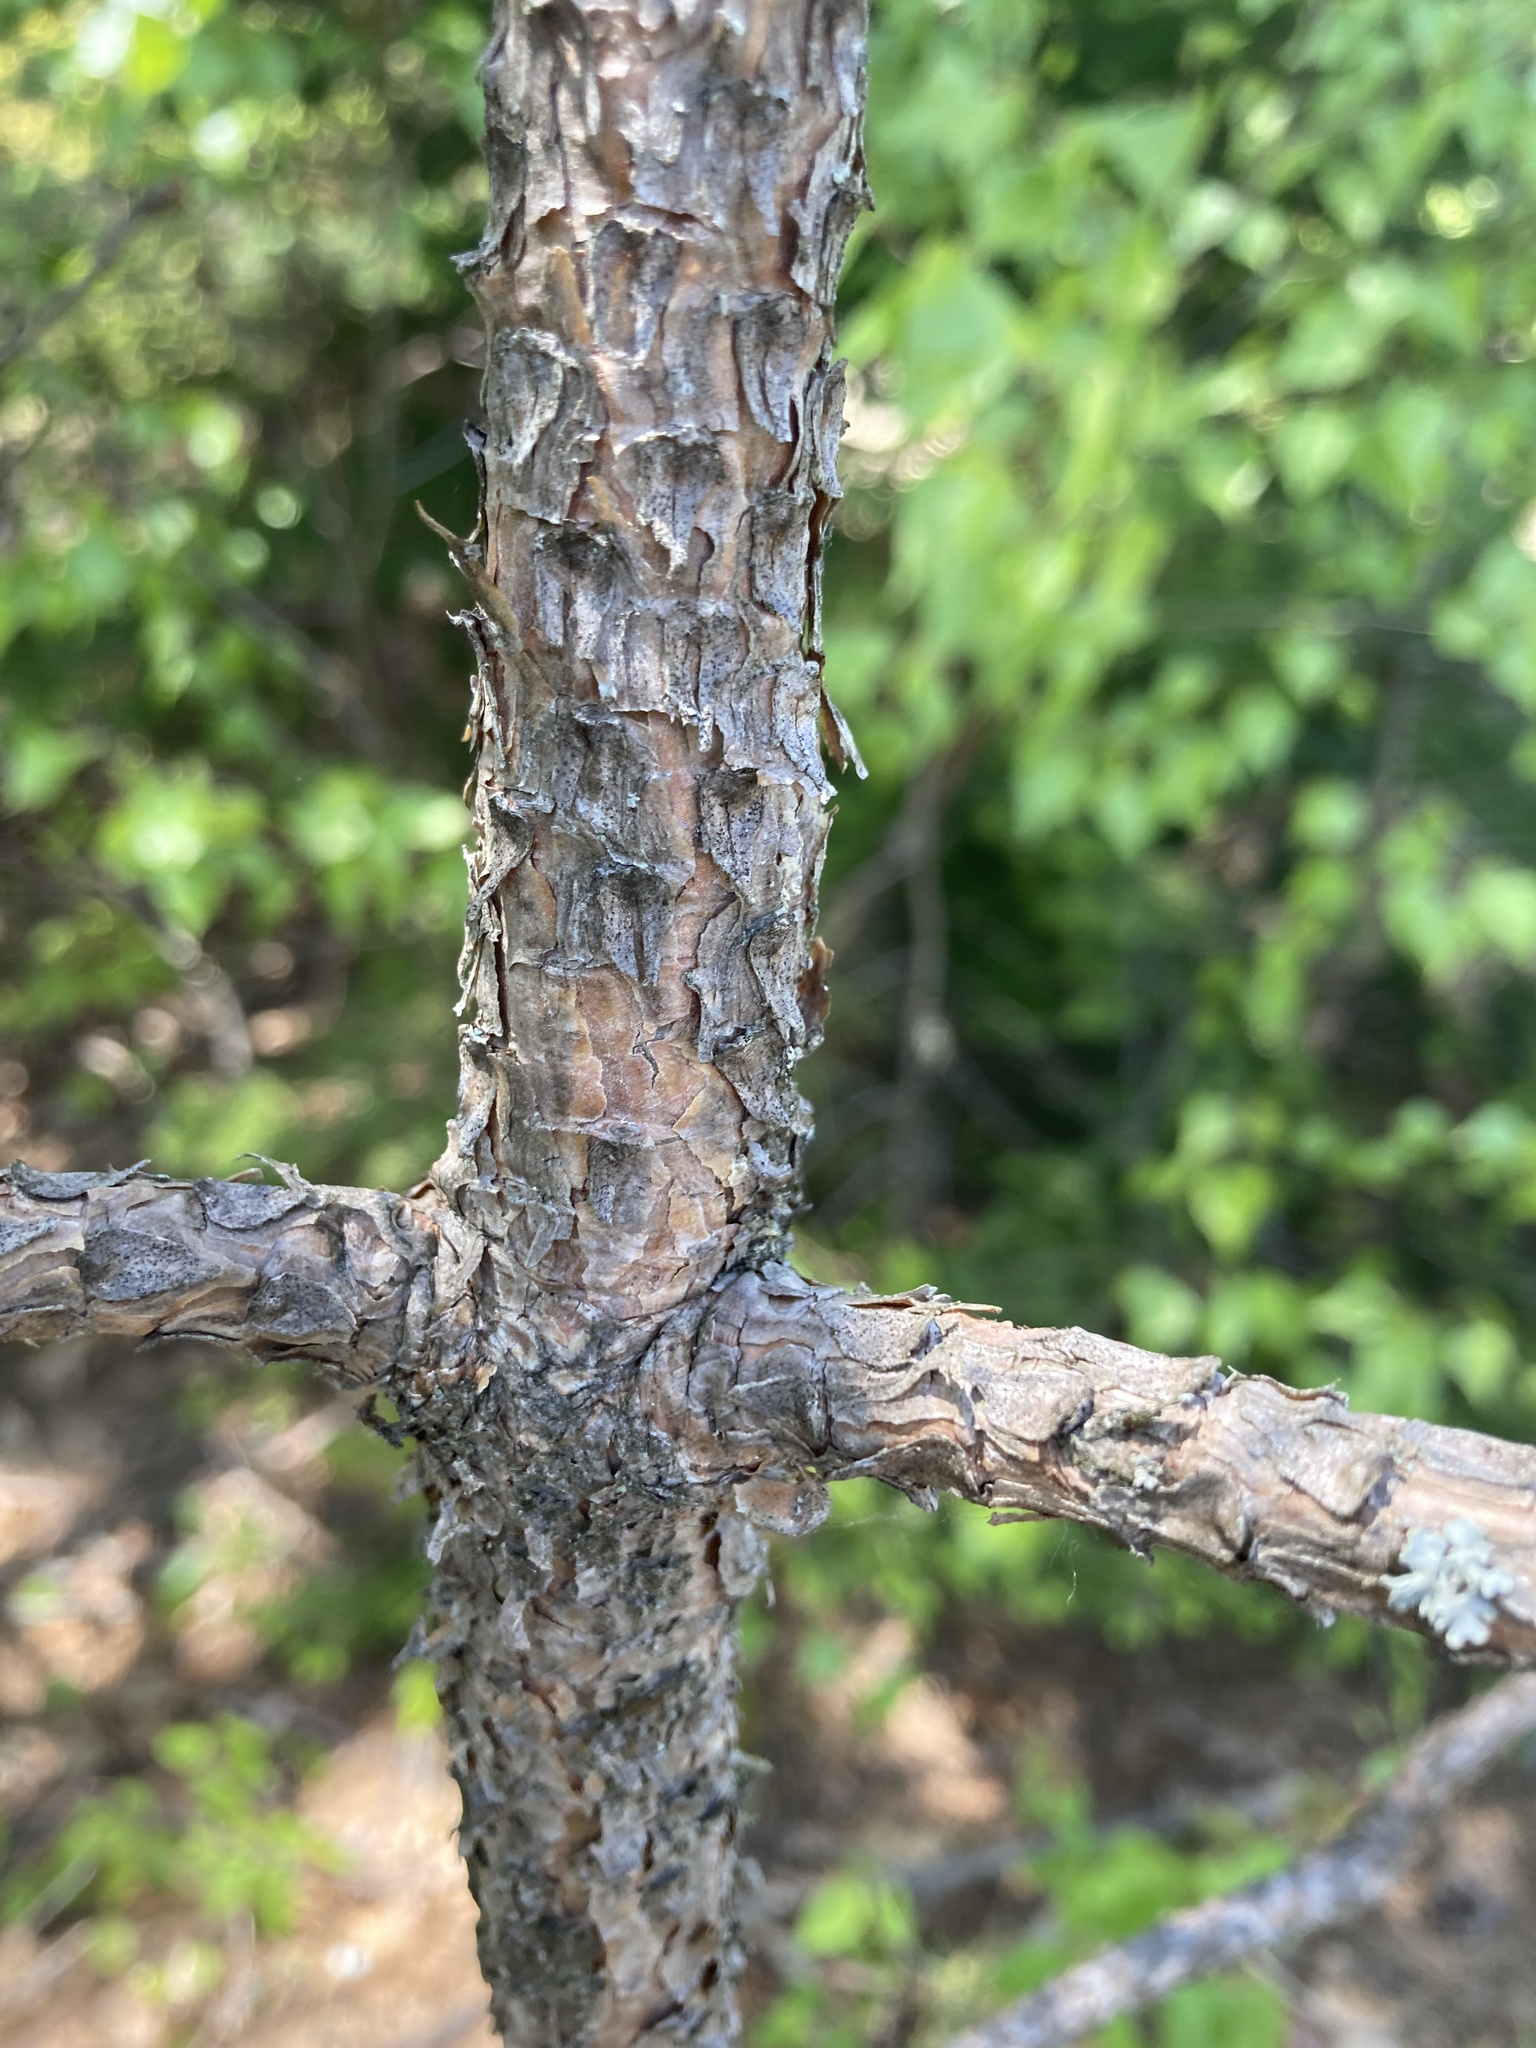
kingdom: Plantae
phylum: Tracheophyta
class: Pinopsida
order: Pinales
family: Pinaceae
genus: Pinus
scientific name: Pinus resinosa
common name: Norway pine
